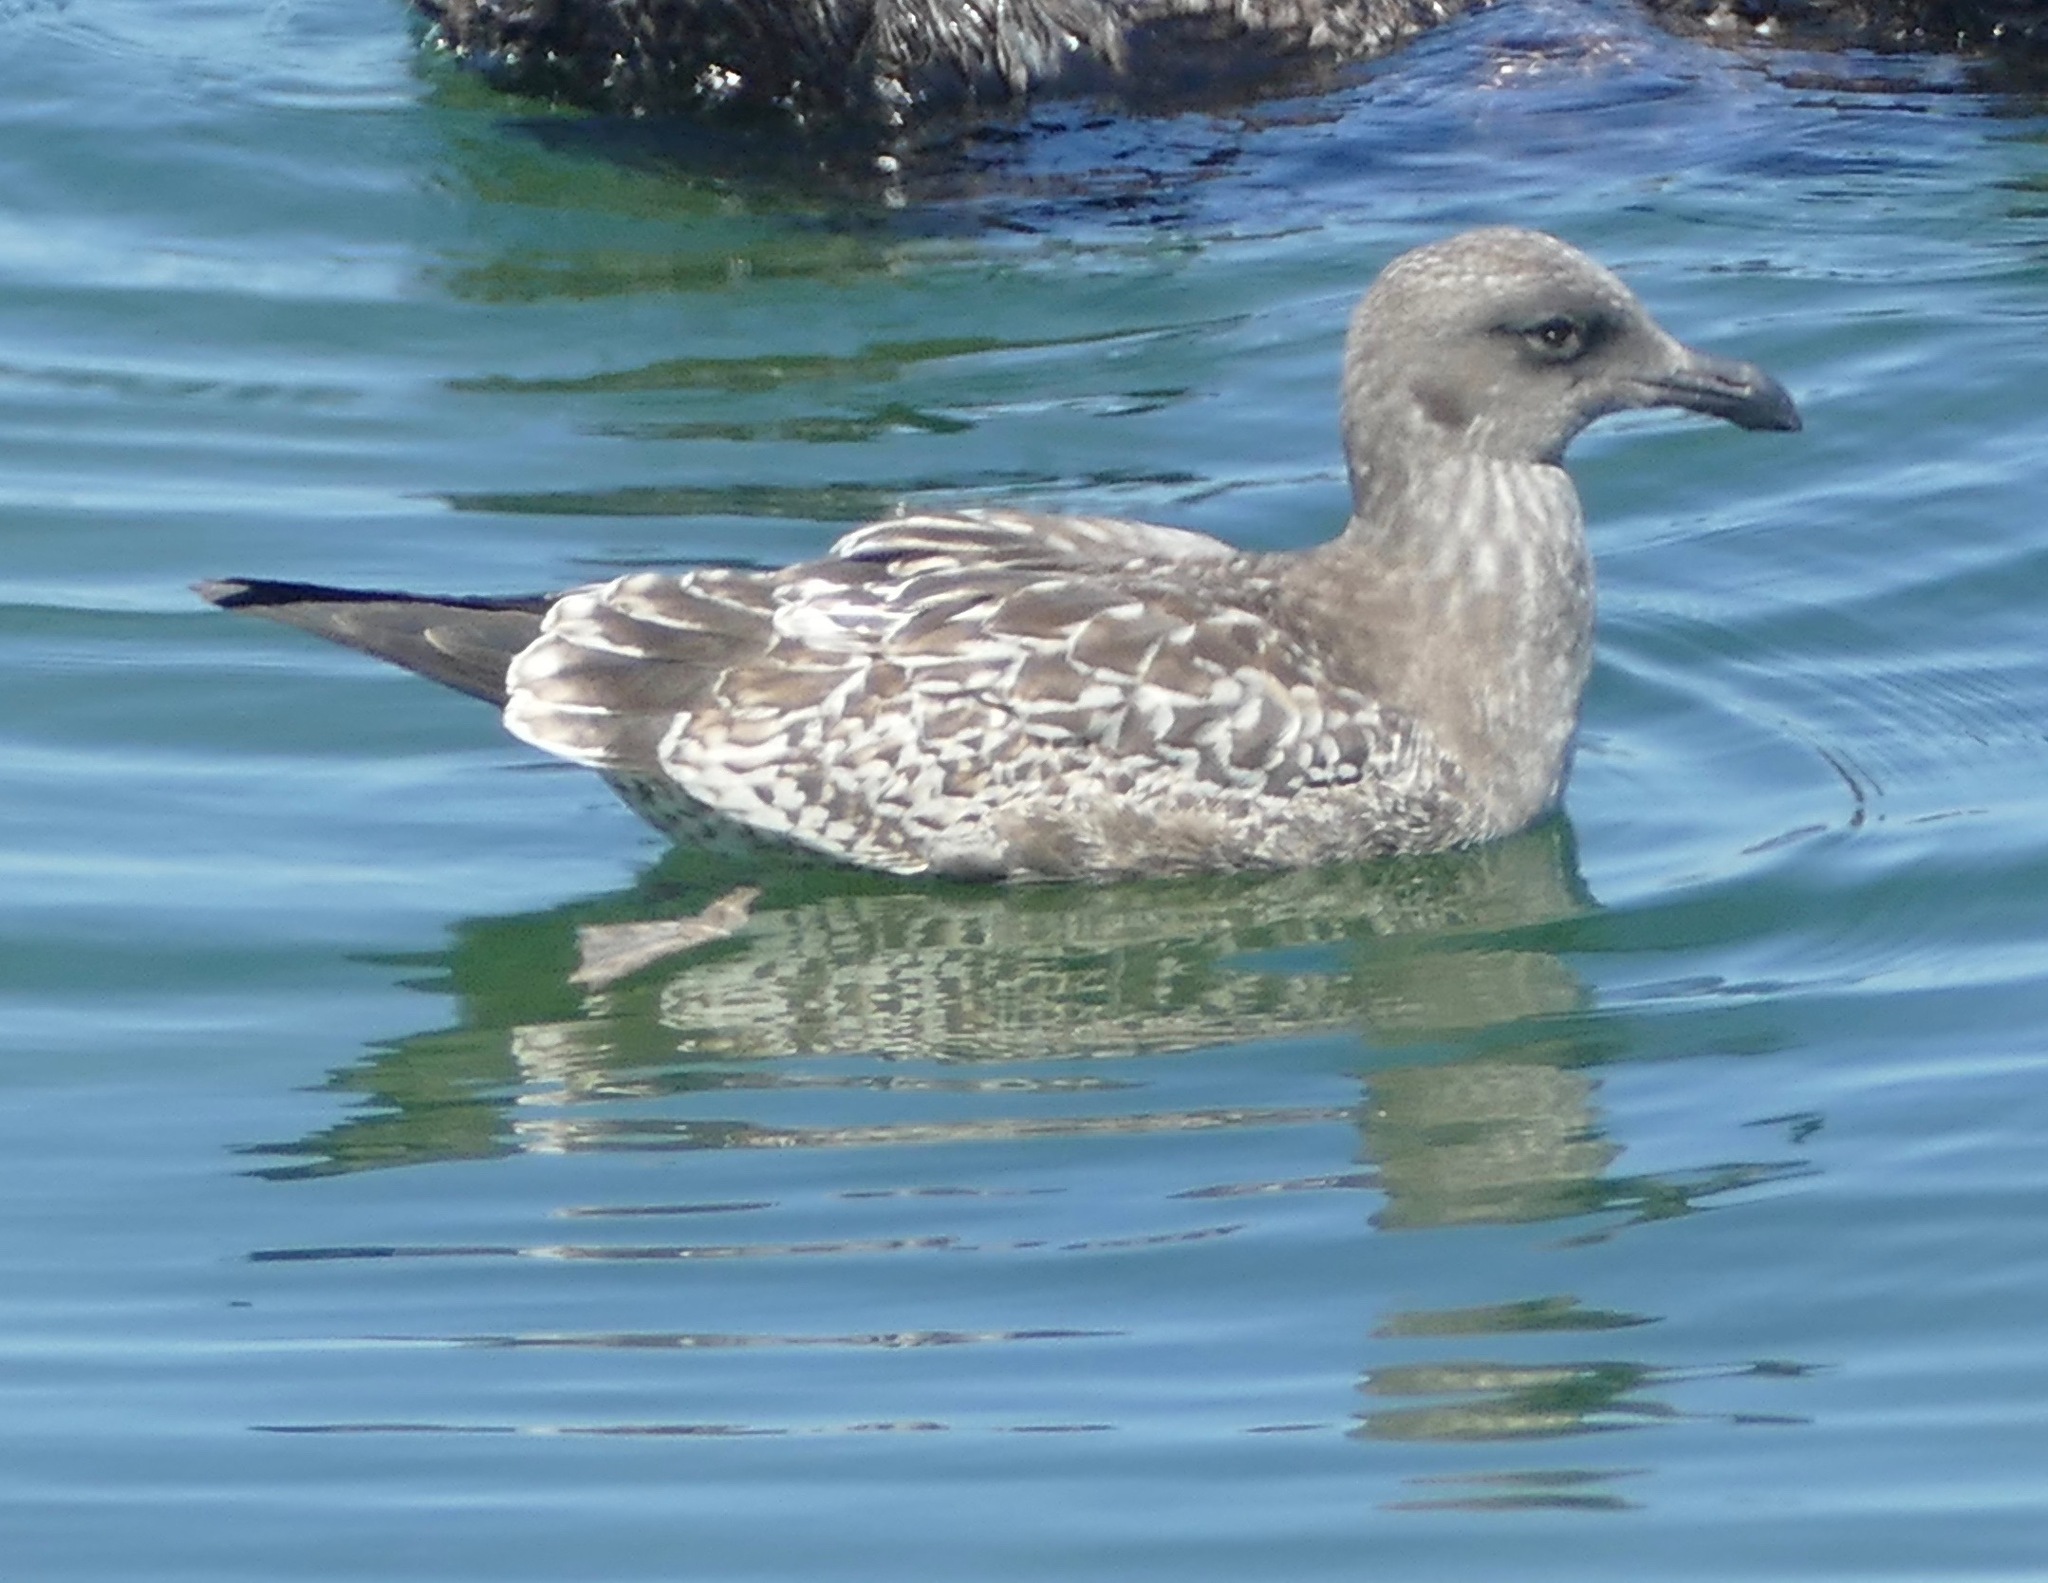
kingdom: Animalia
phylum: Chordata
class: Aves
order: Charadriiformes
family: Laridae
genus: Larus
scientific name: Larus occidentalis
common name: Western gull
